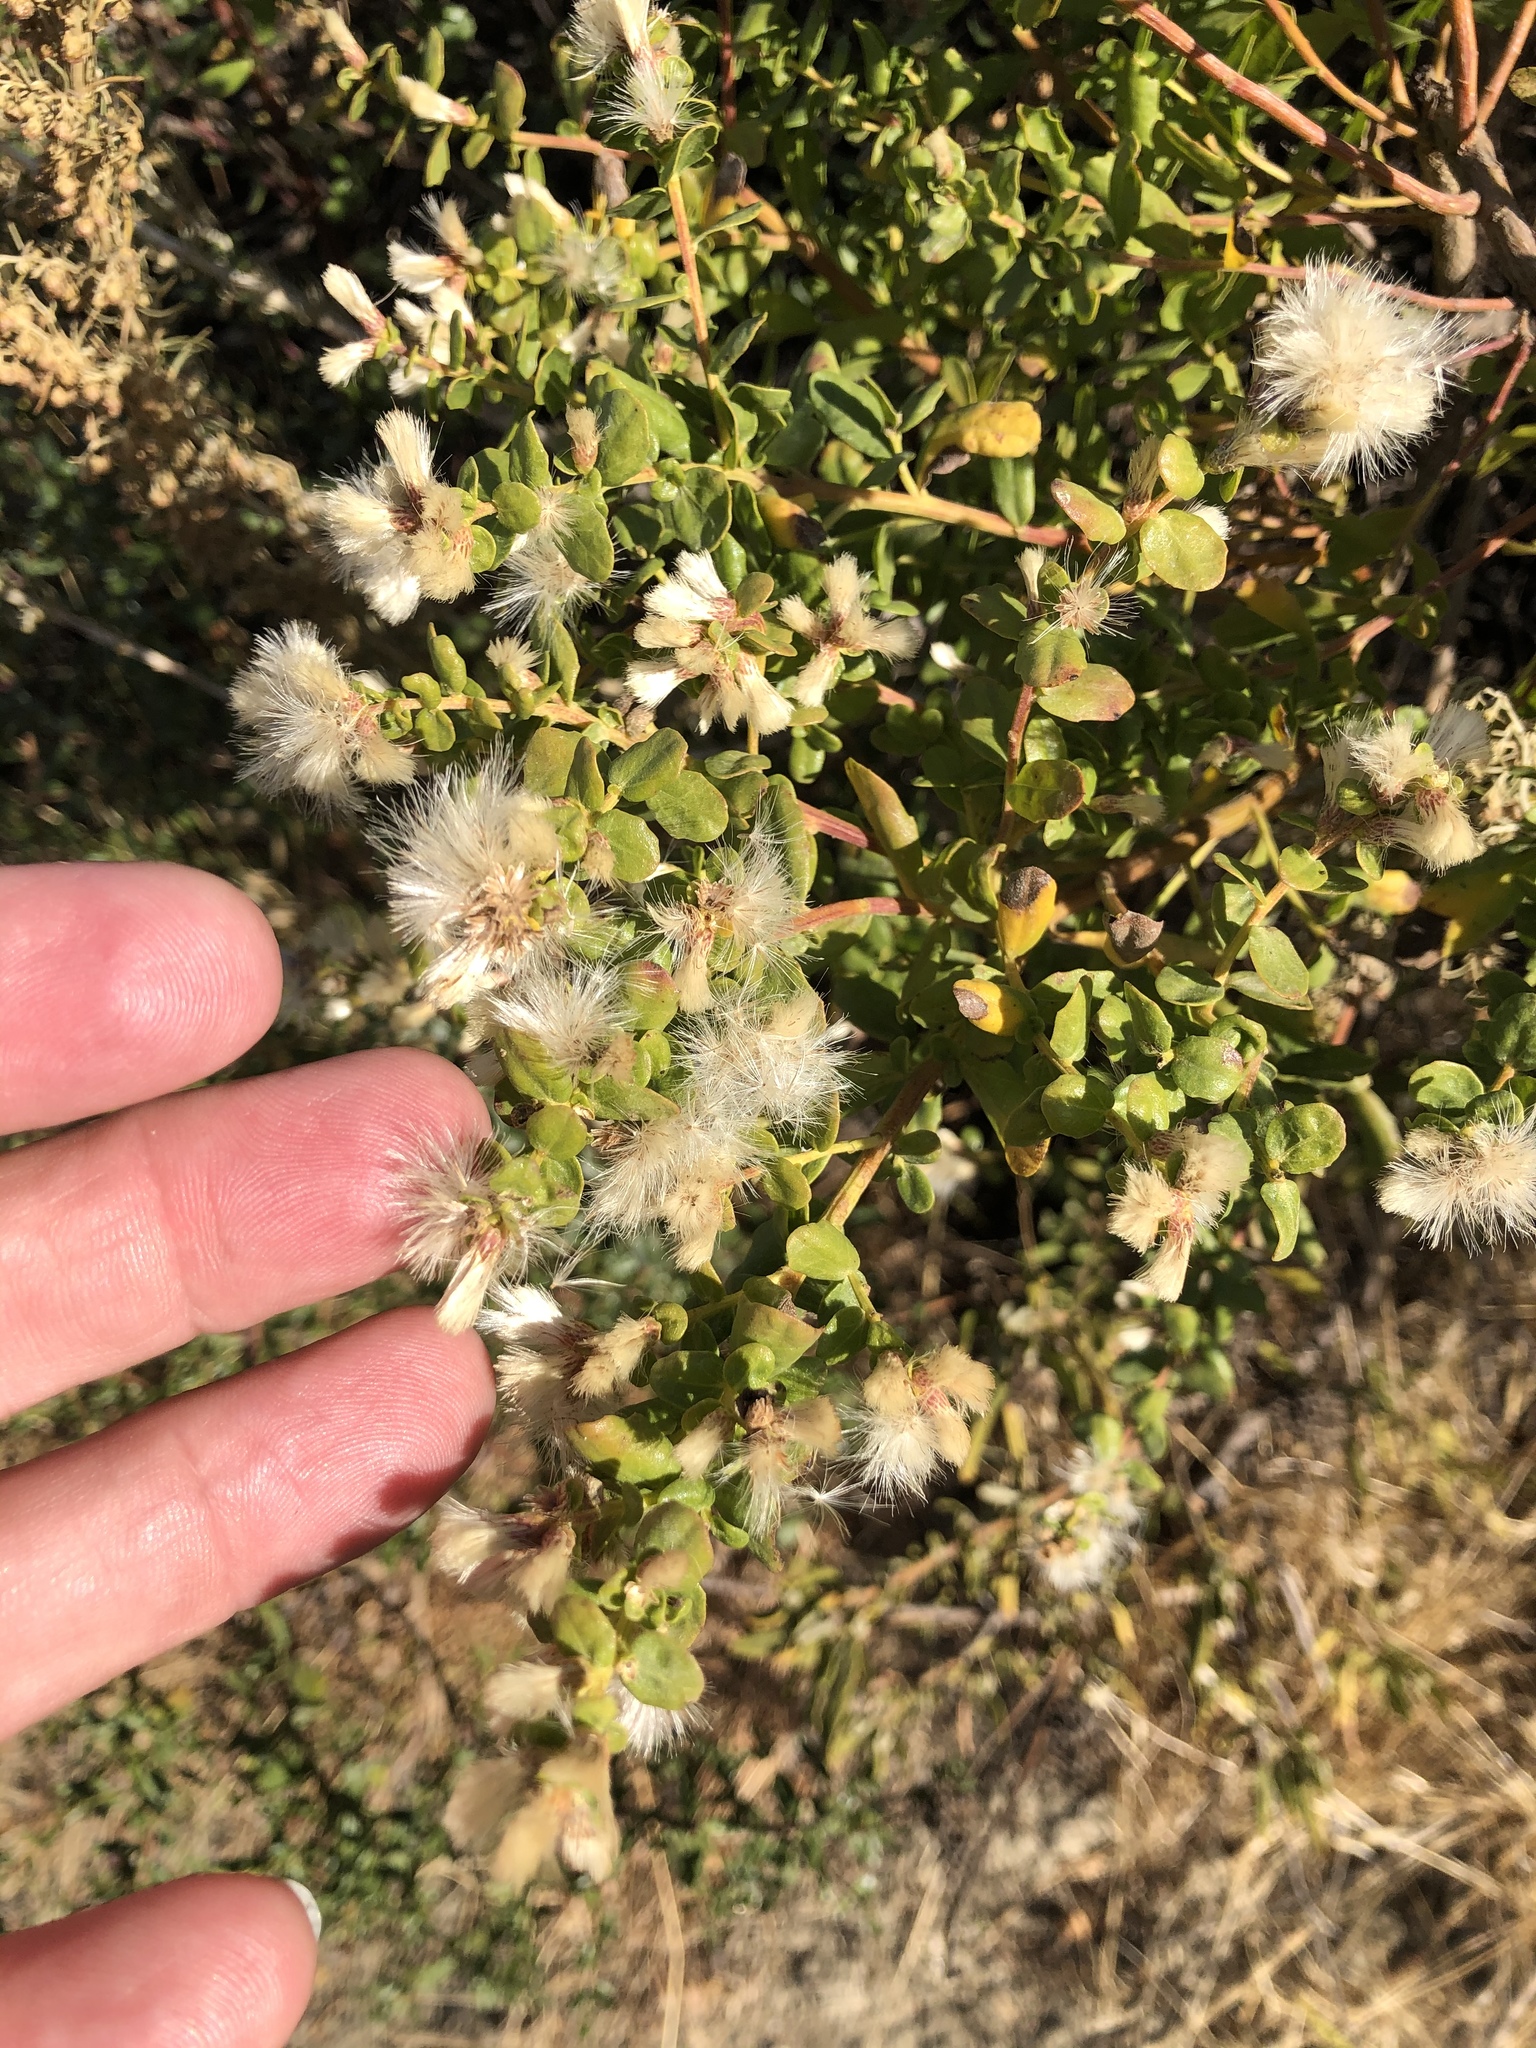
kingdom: Plantae
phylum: Tracheophyta
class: Magnoliopsida
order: Asterales
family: Asteraceae
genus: Baccharis
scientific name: Baccharis pilularis
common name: Coyotebrush
